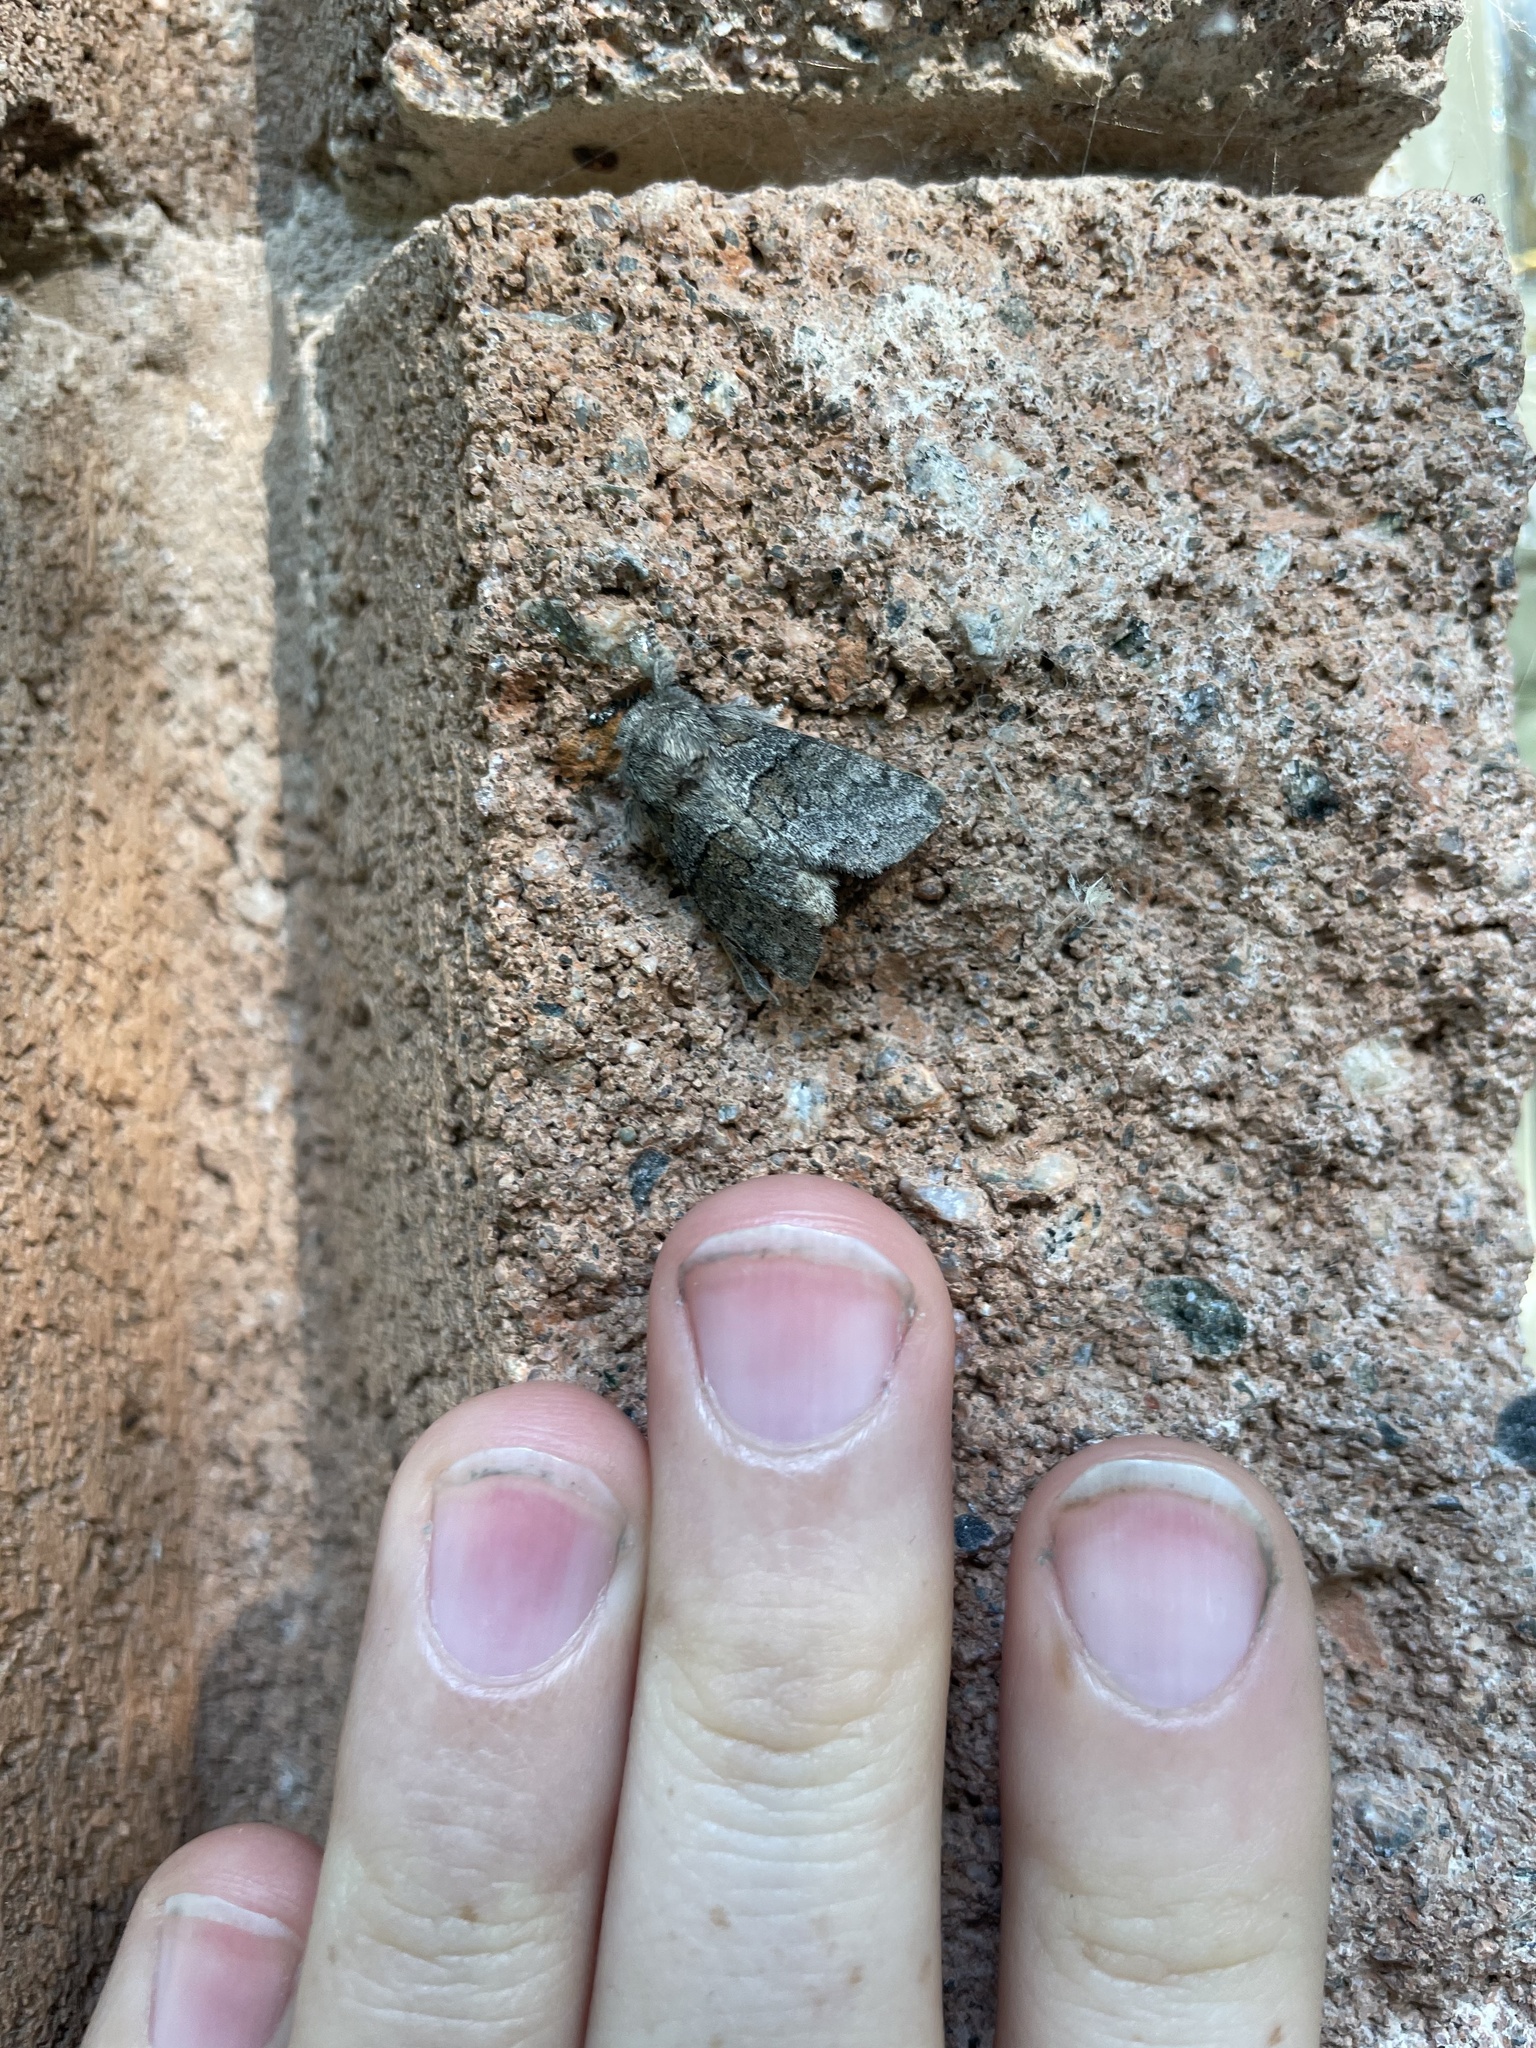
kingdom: Animalia
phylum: Arthropoda
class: Insecta
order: Lepidoptera
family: Notodontidae
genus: Gluphisia
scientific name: Gluphisia septentrionis
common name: Common gluphisia
